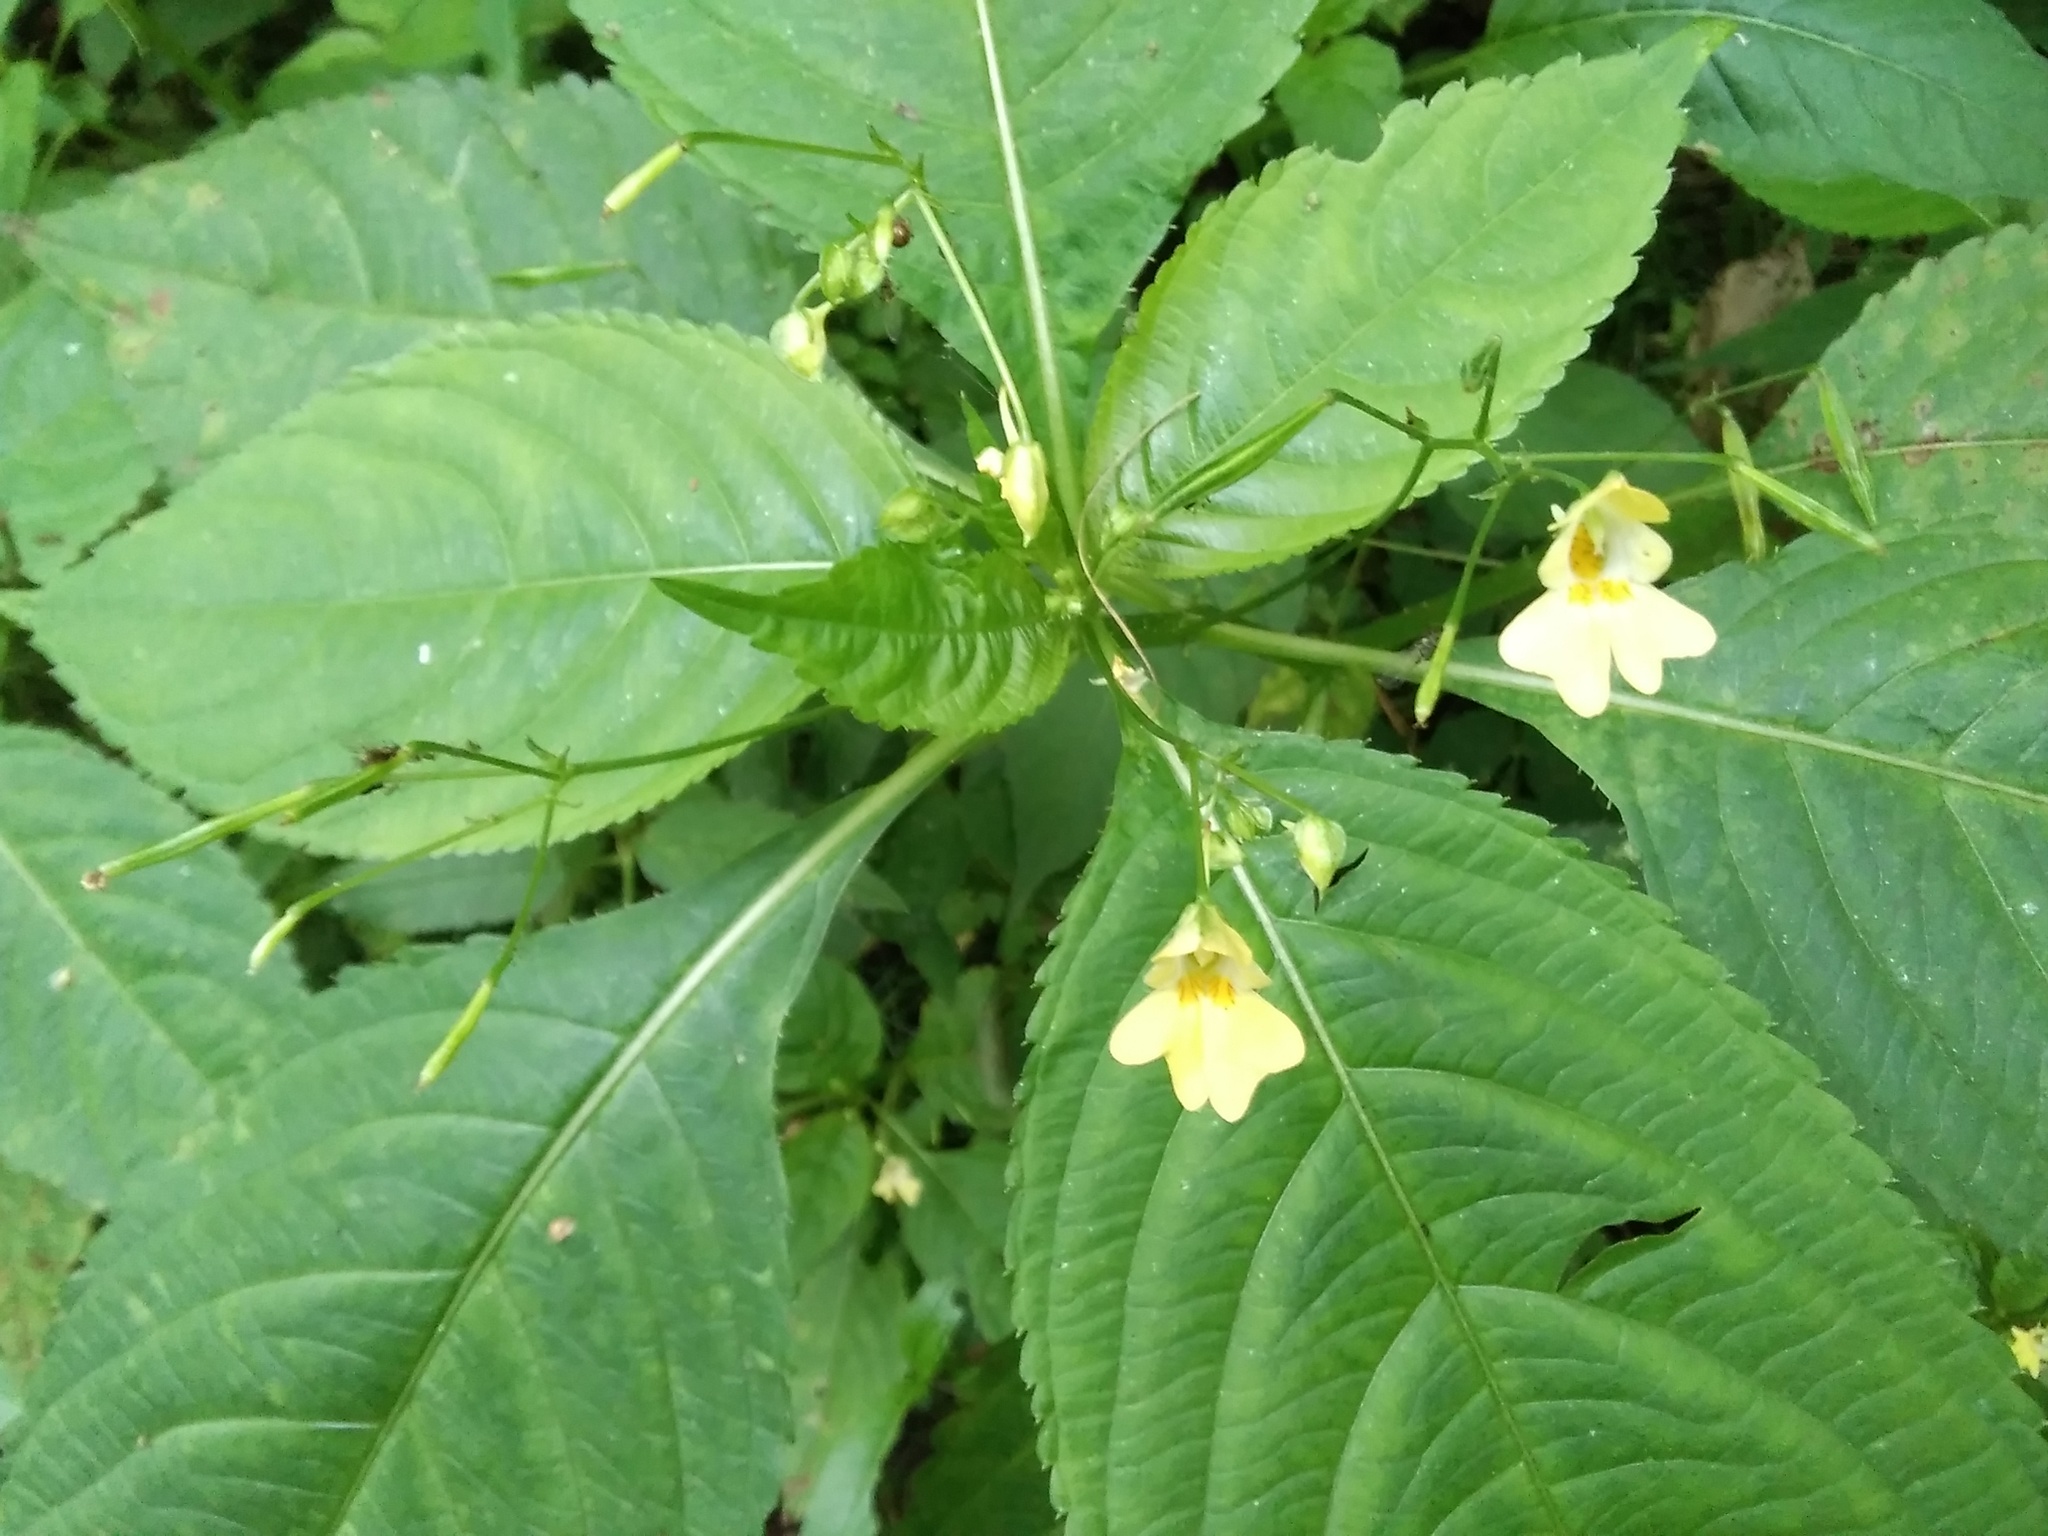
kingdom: Plantae
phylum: Tracheophyta
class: Magnoliopsida
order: Ericales
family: Balsaminaceae
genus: Impatiens
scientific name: Impatiens parviflora
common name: Small balsam
